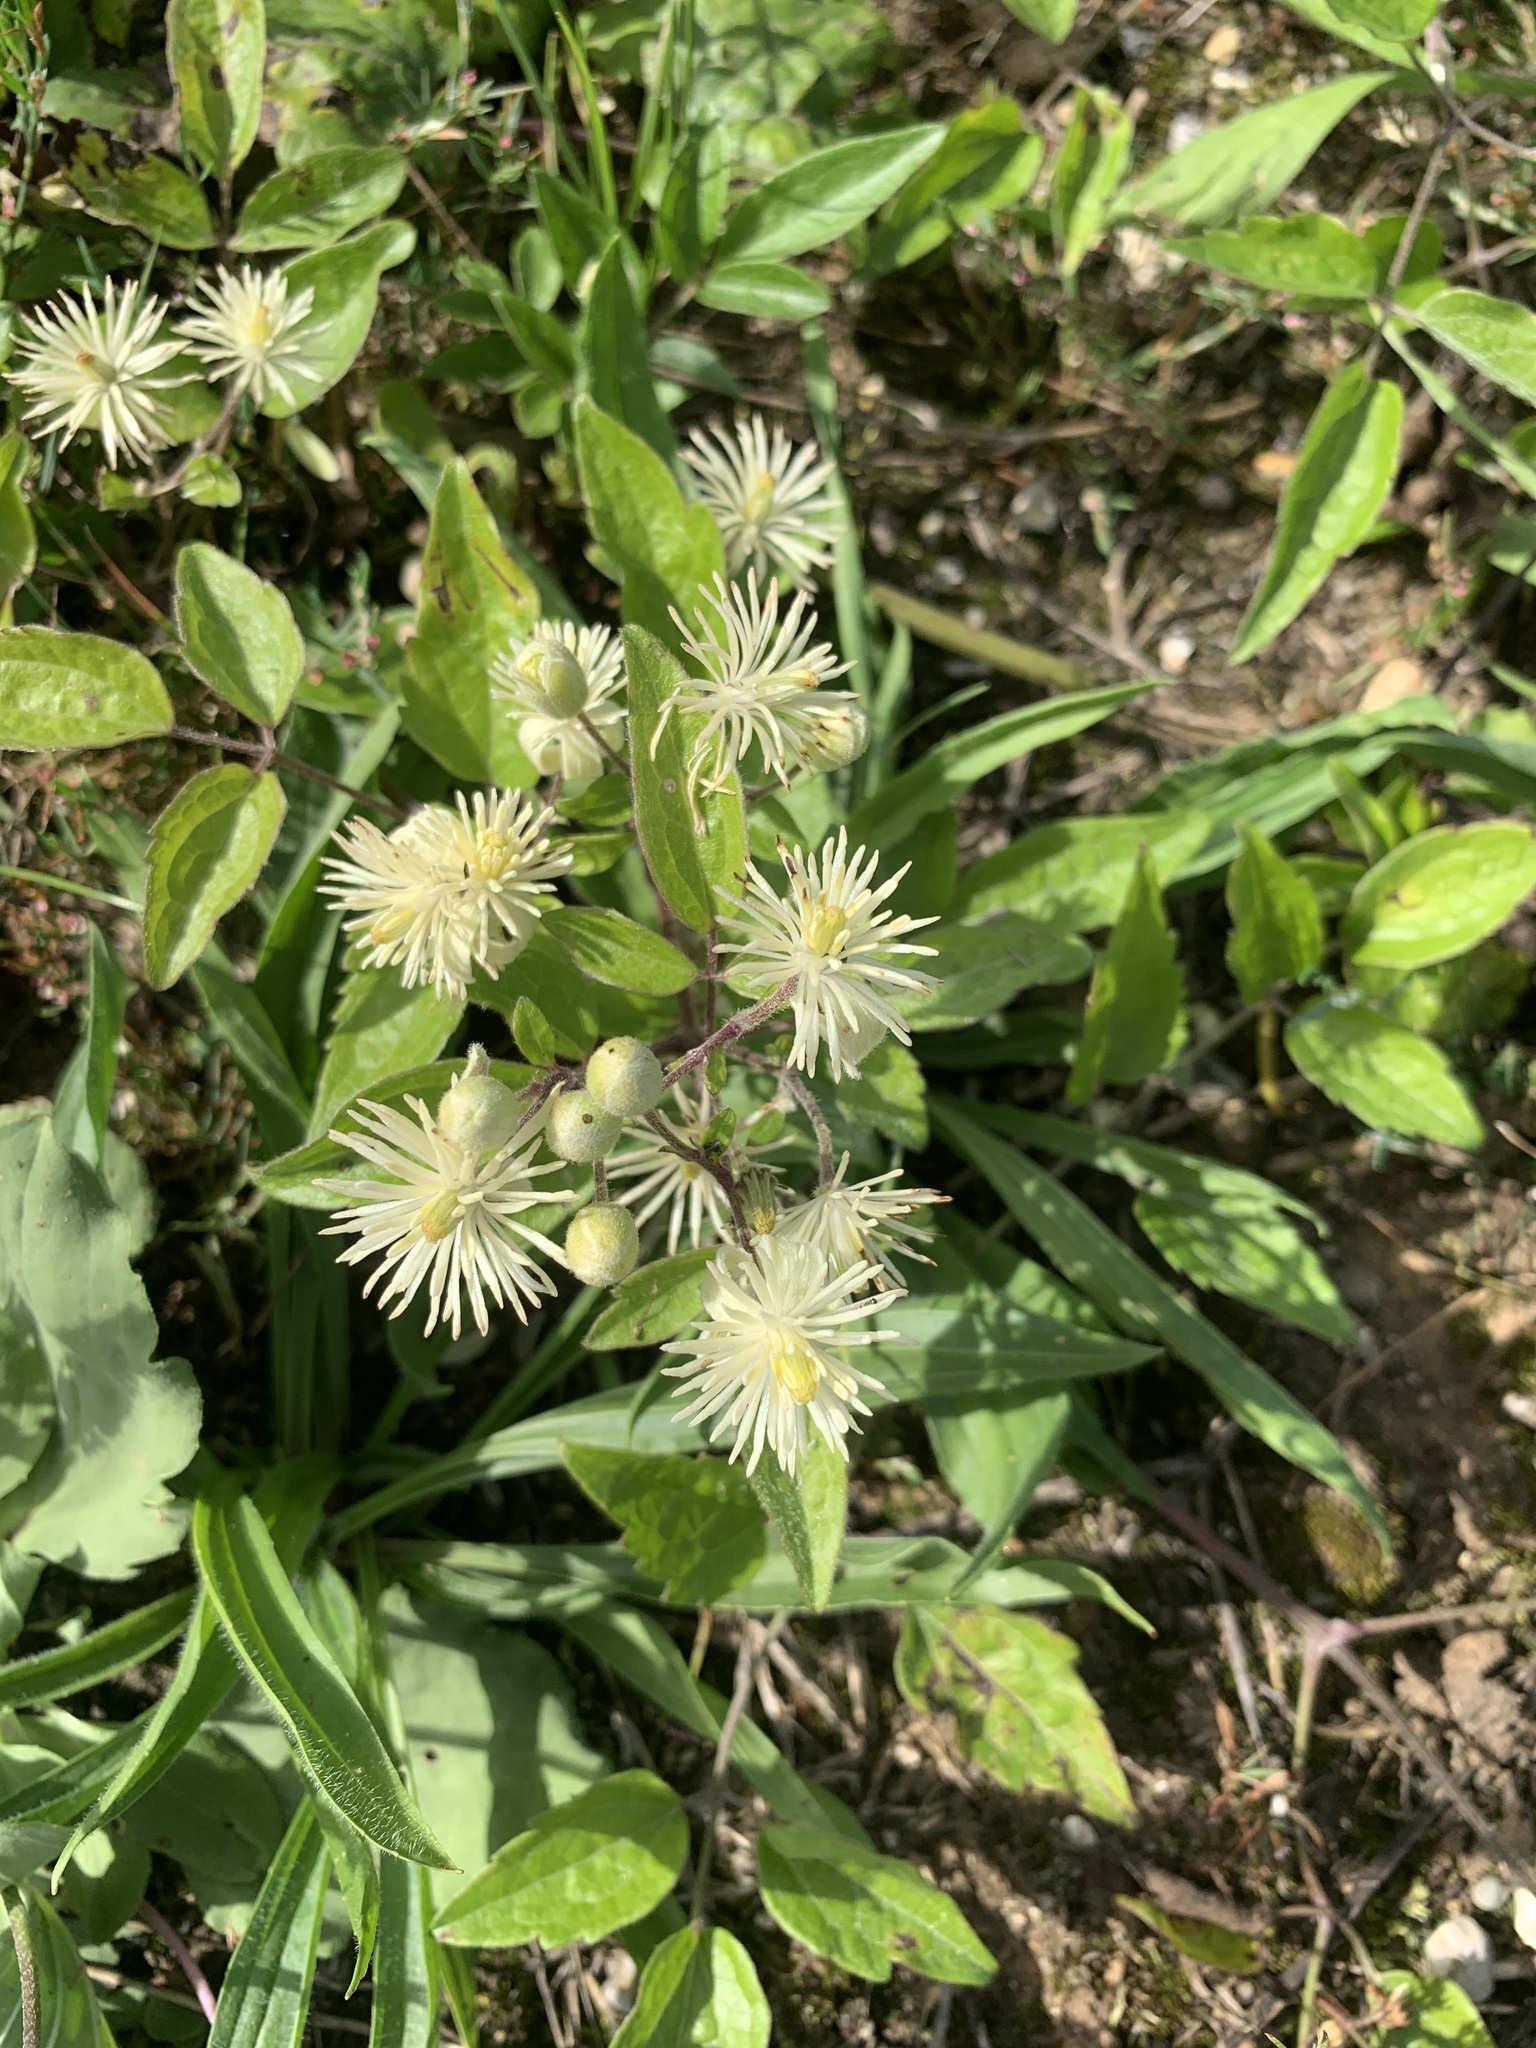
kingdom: Plantae
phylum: Tracheophyta
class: Magnoliopsida
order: Ranunculales
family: Ranunculaceae
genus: Clematis
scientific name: Clematis vitalba
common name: Evergreen clematis
